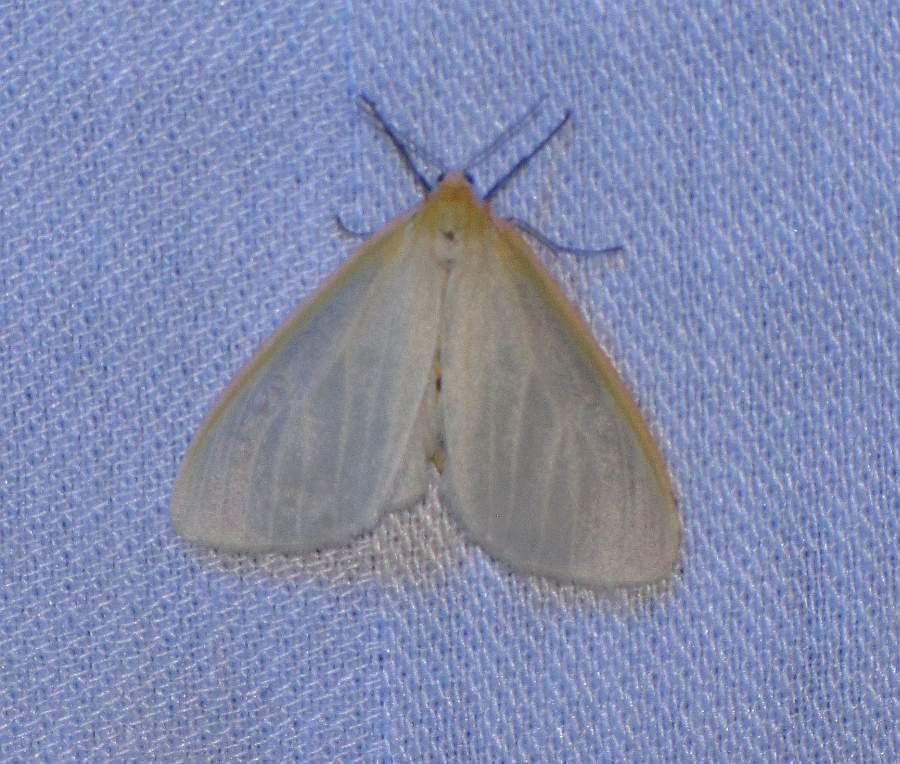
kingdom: Animalia
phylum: Arthropoda
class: Insecta
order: Lepidoptera
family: Erebidae
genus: Cycnia
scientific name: Cycnia tenera
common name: Delicate cycnia moth
